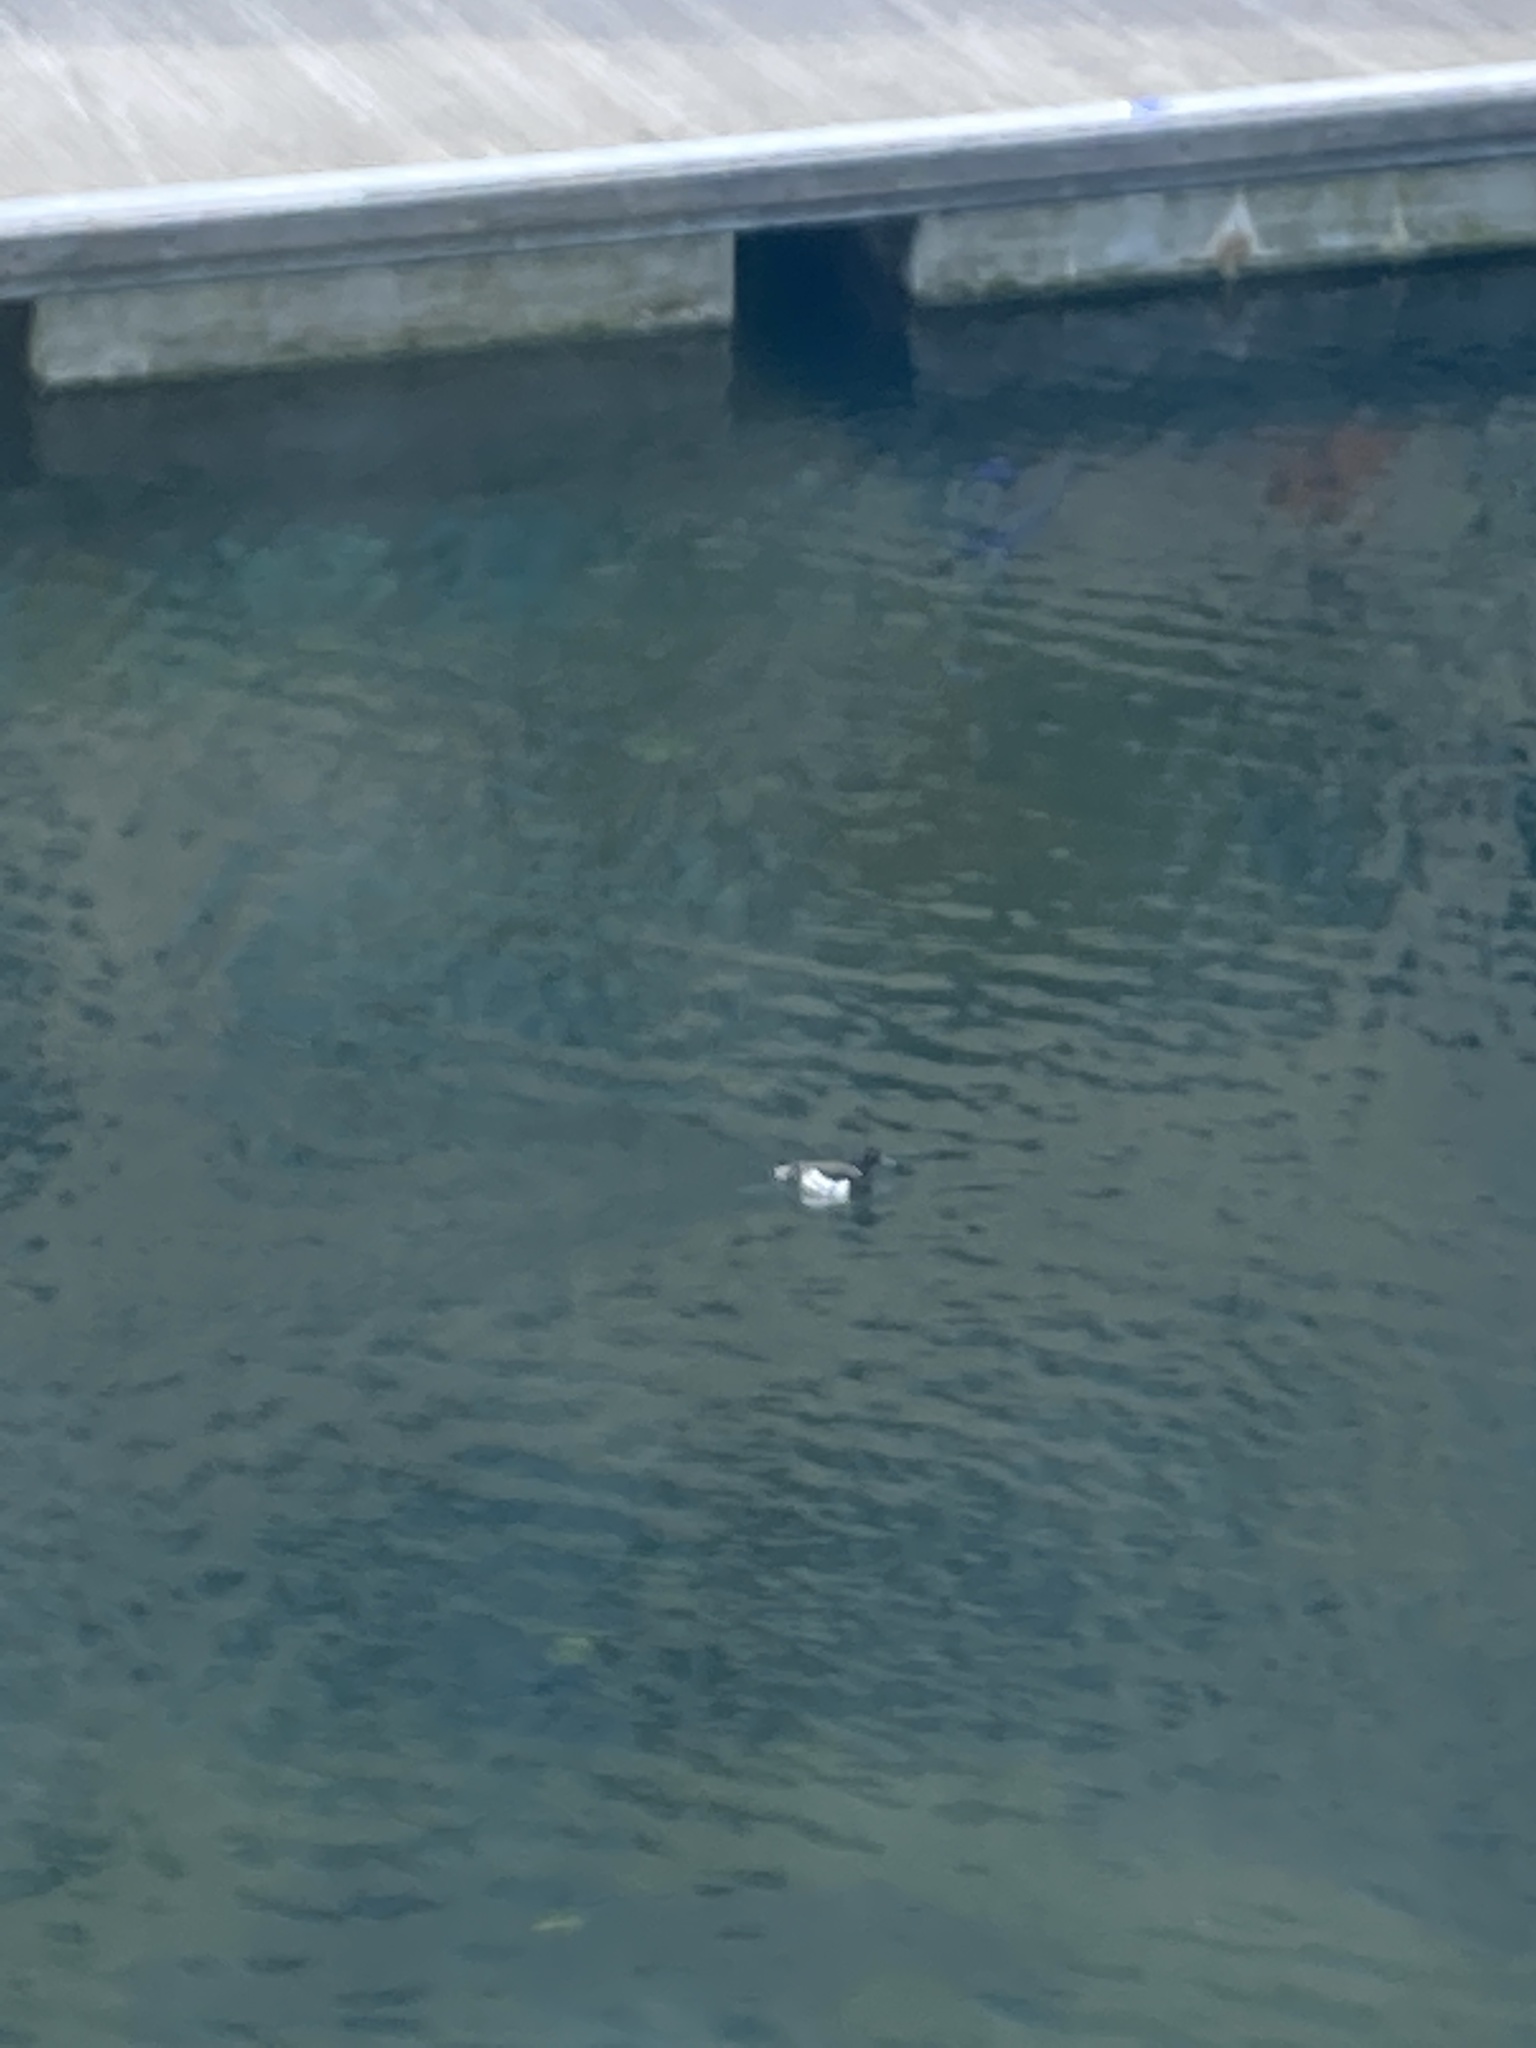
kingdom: Animalia
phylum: Chordata
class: Aves
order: Anseriformes
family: Anatidae
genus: Aythya
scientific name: Aythya fuligula
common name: Tufted duck
